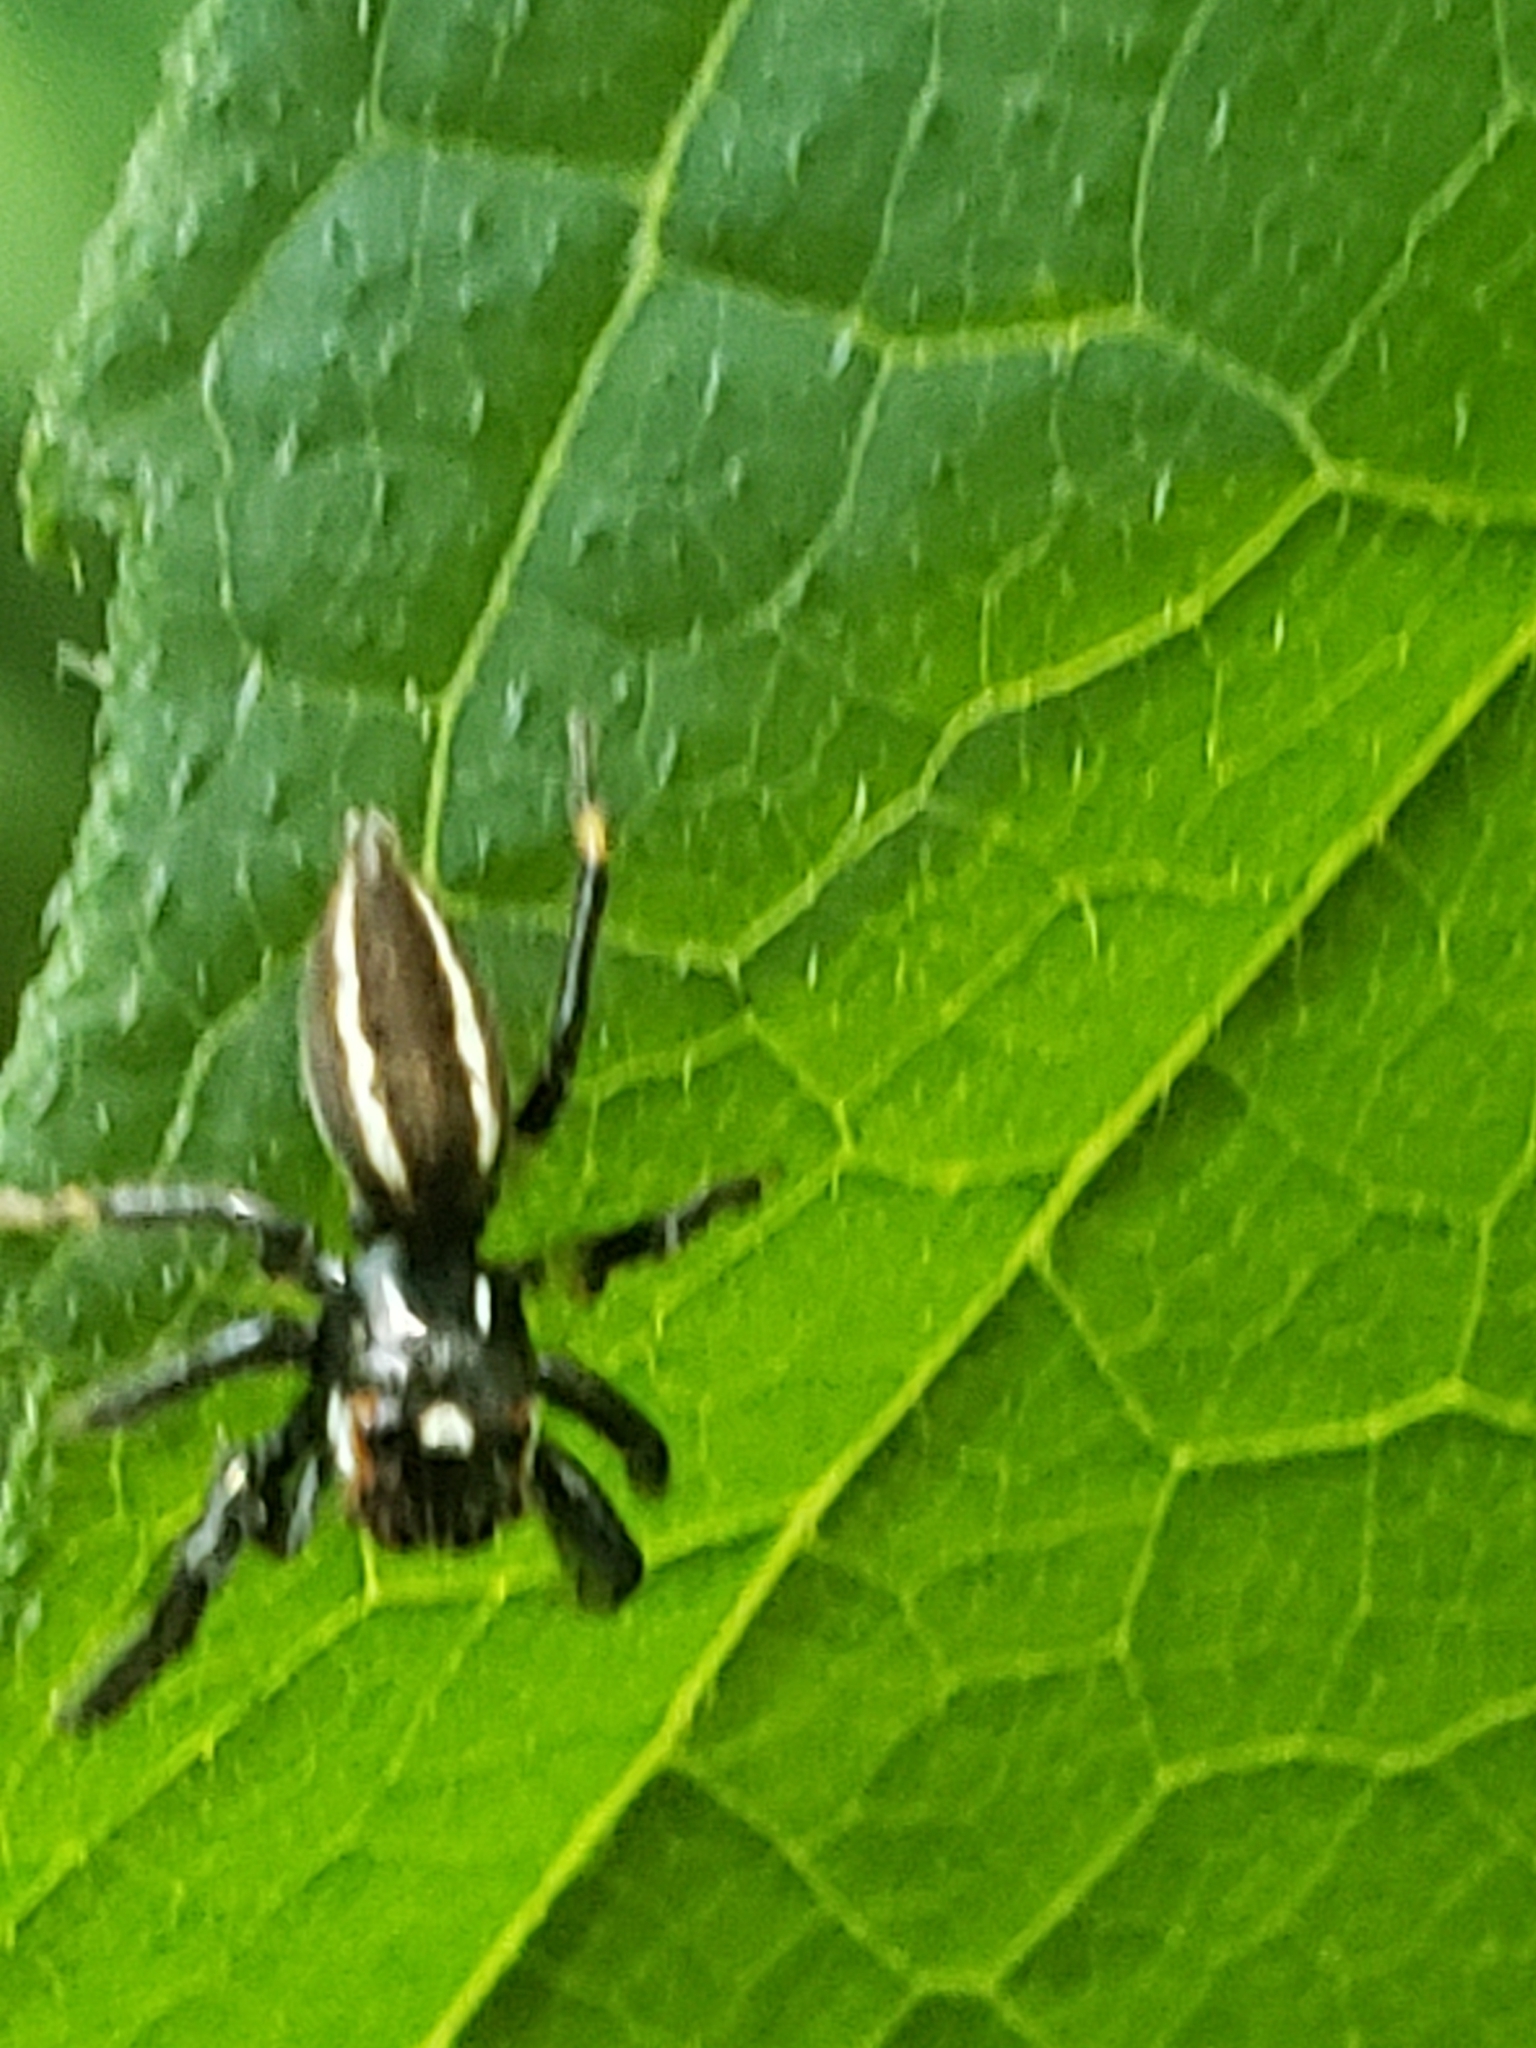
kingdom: Animalia
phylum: Arthropoda
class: Arachnida
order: Araneae
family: Salticidae
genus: Colonus
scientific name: Colonus sylvanus
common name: Jumping spiders
